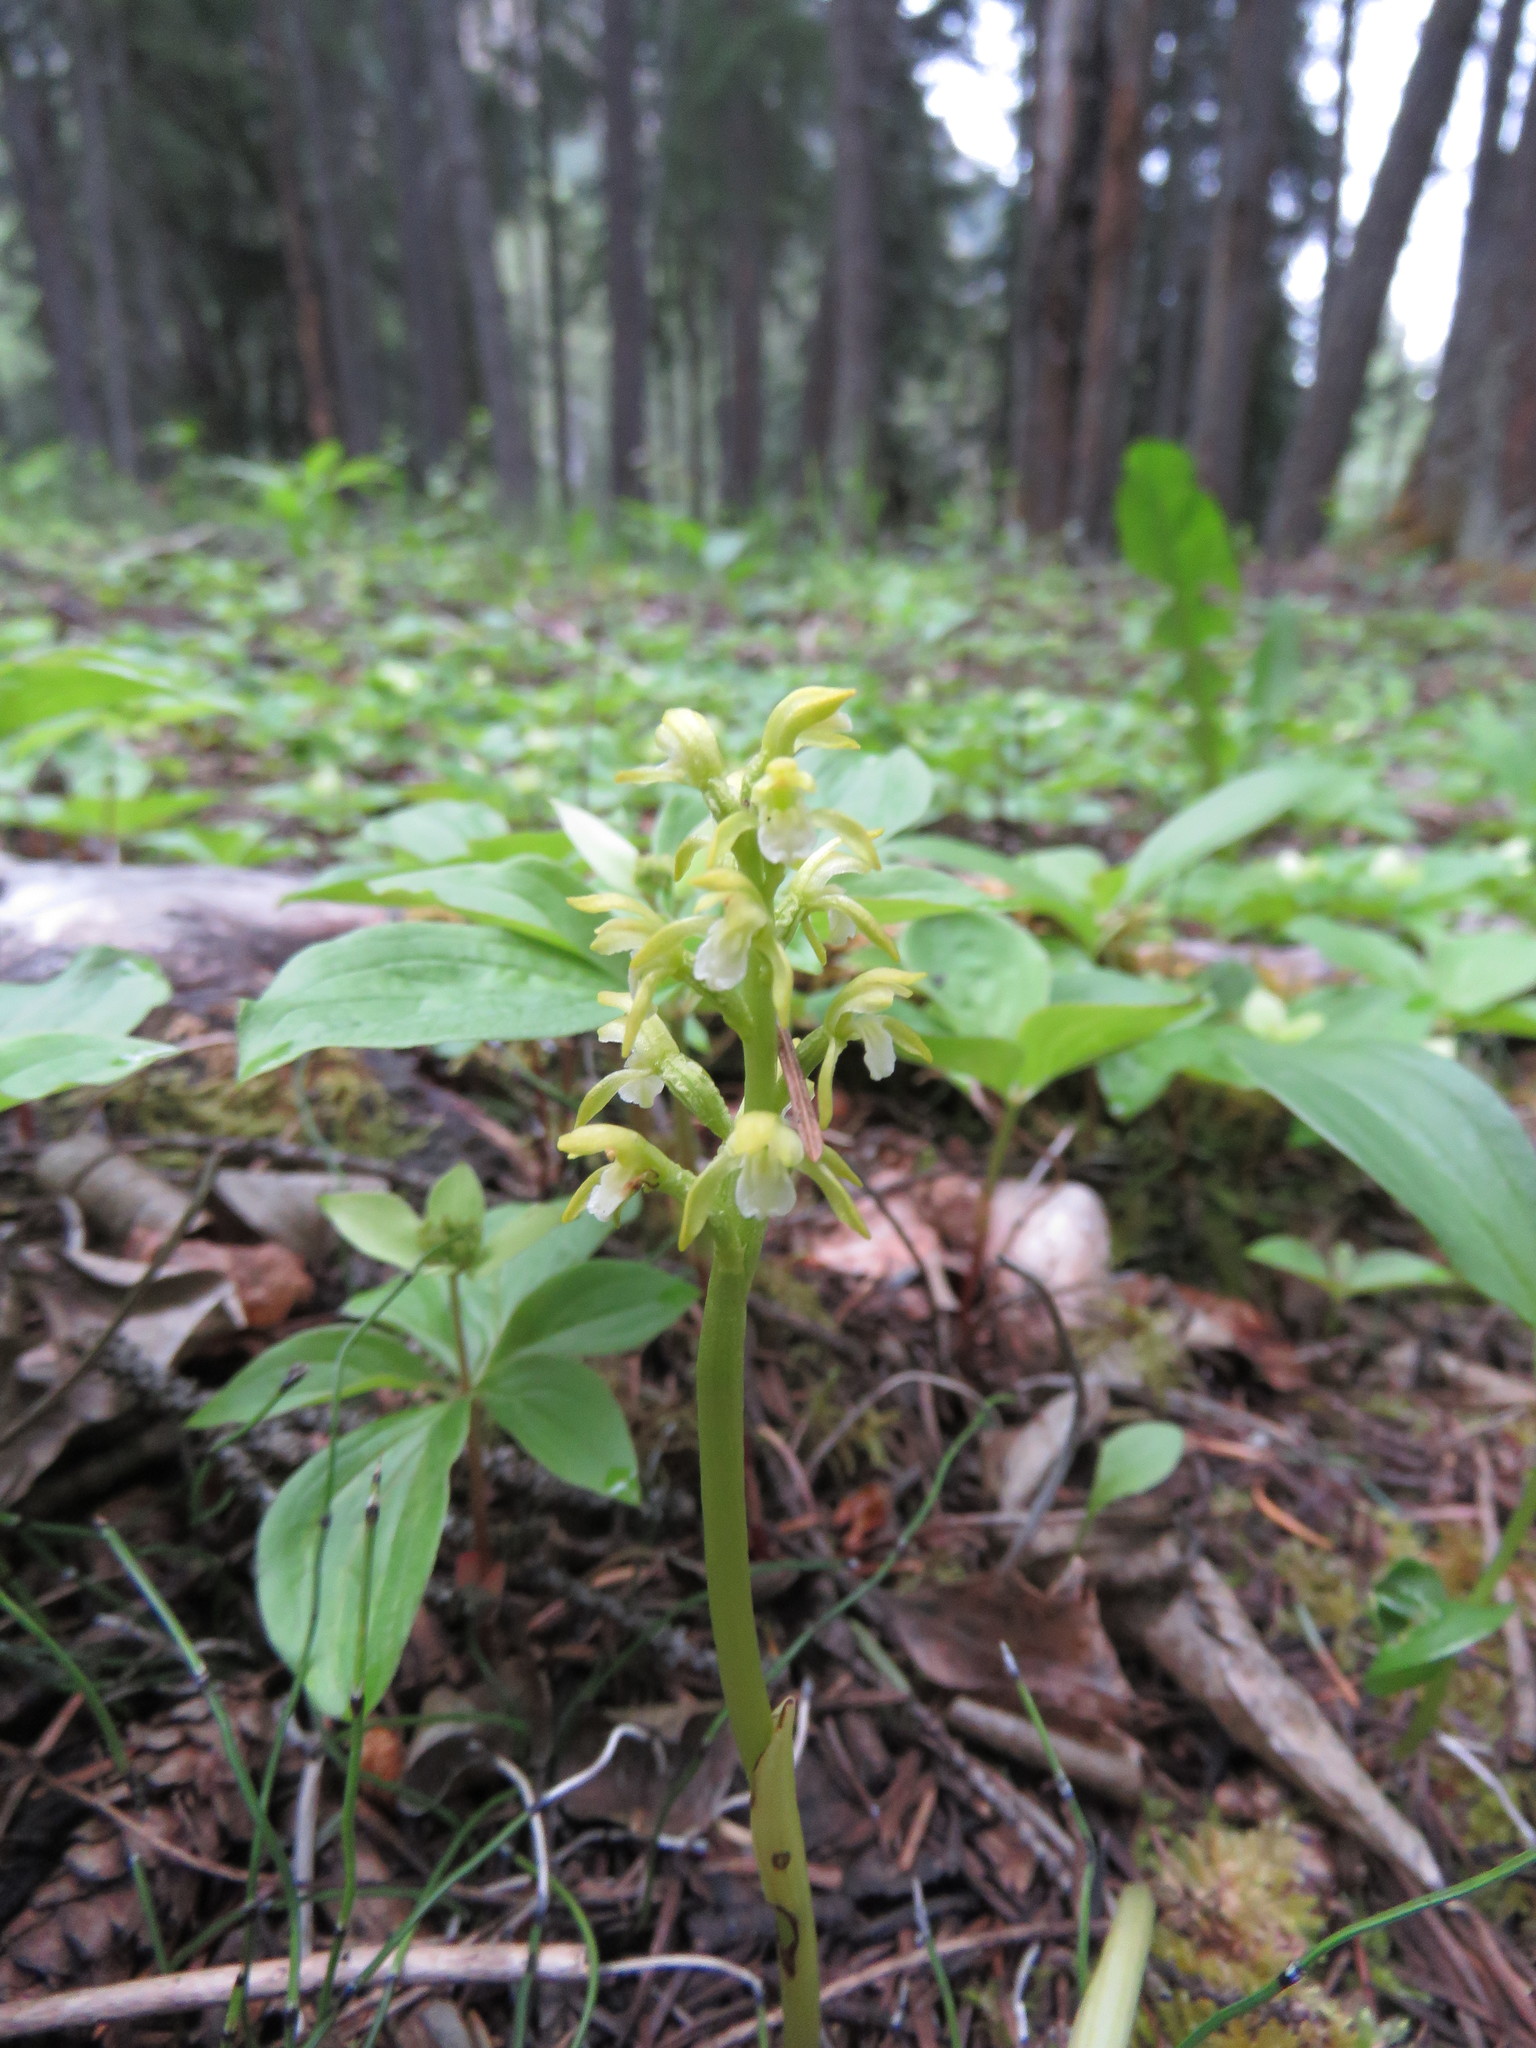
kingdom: Plantae
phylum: Tracheophyta
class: Liliopsida
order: Asparagales
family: Orchidaceae
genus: Corallorhiza
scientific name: Corallorhiza trifida
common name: Yellow coralroot
